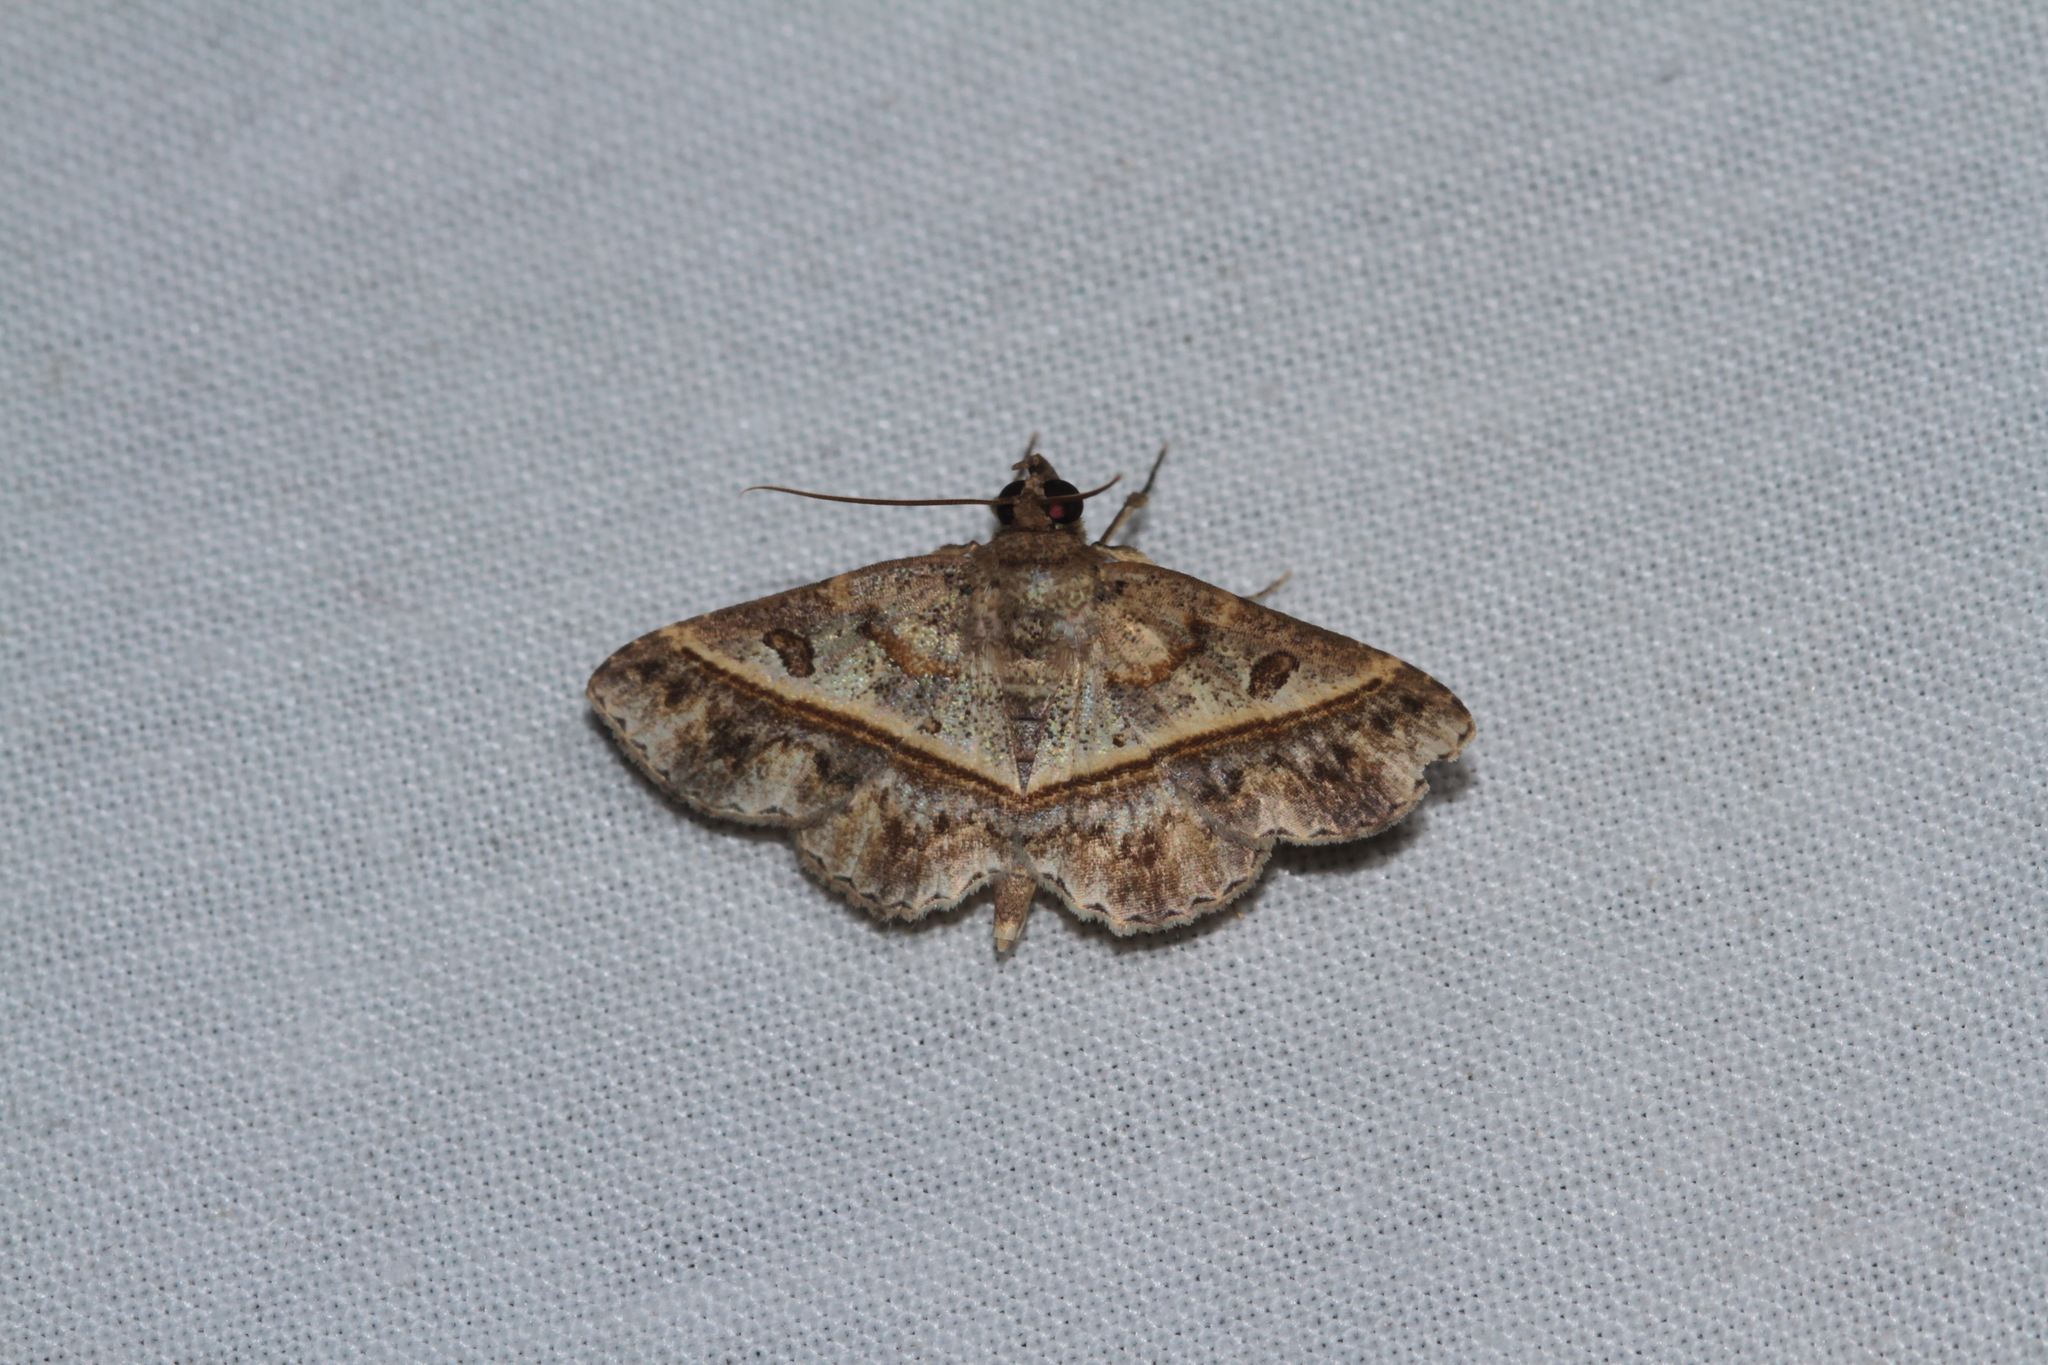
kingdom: Animalia
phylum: Arthropoda
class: Insecta
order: Lepidoptera
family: Erebidae
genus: Antiblemma
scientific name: Antiblemma acclinalis
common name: Moth
